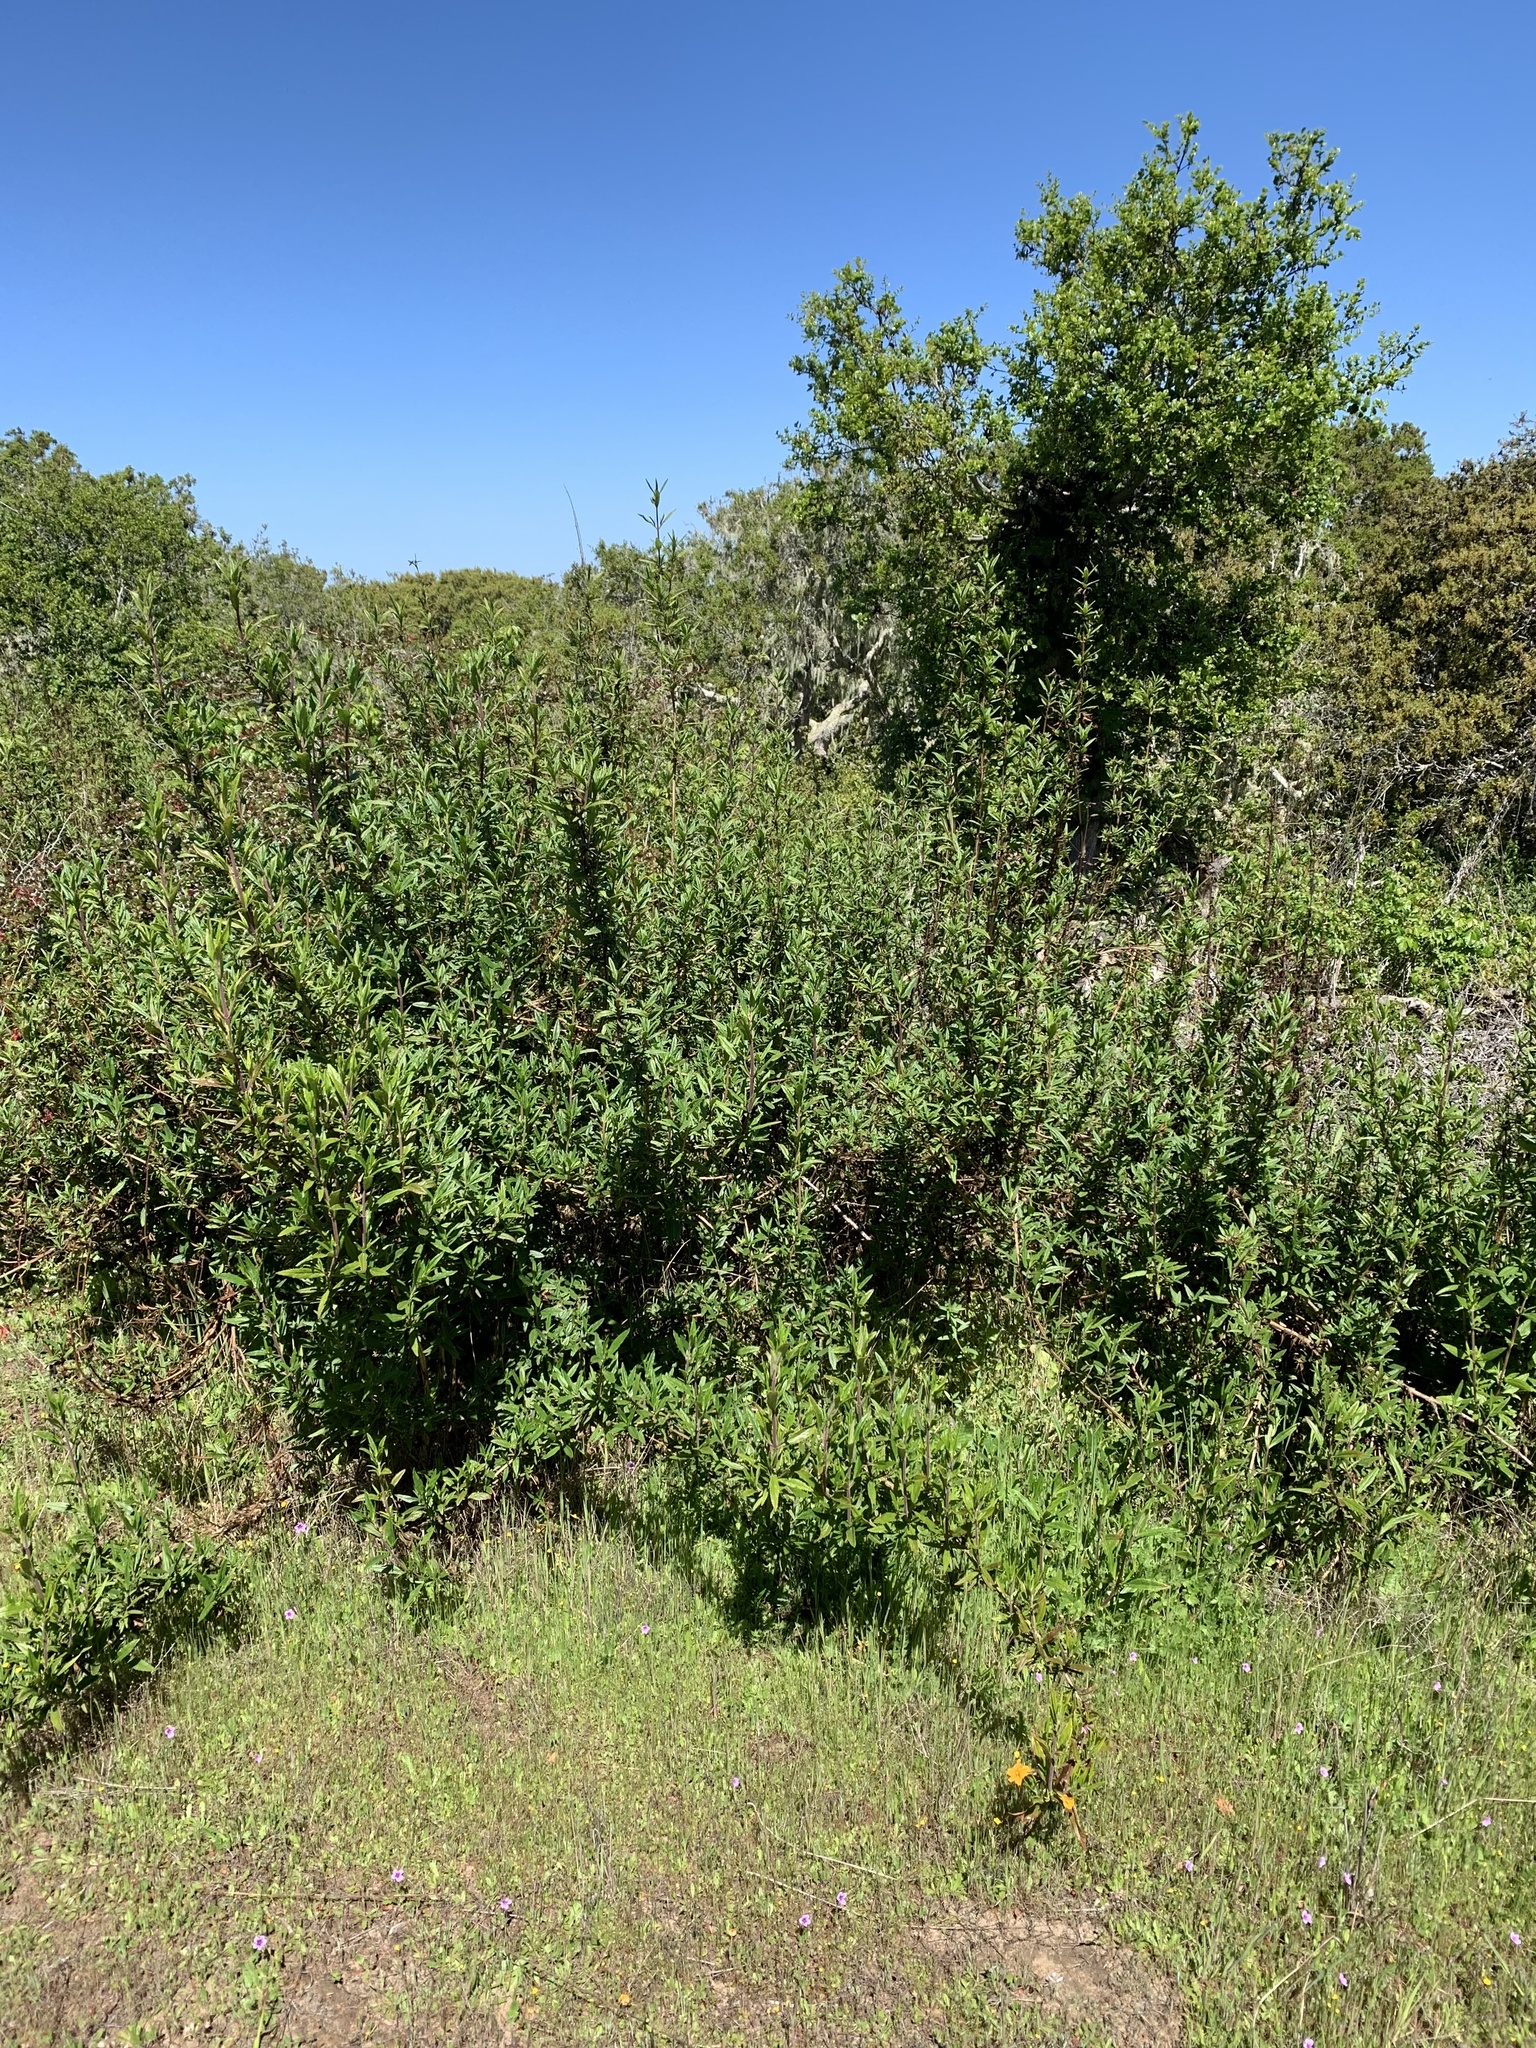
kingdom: Plantae
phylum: Tracheophyta
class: Magnoliopsida
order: Lamiales
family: Phrymaceae
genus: Diplacus
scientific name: Diplacus aurantiacus
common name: Bush monkey-flower
